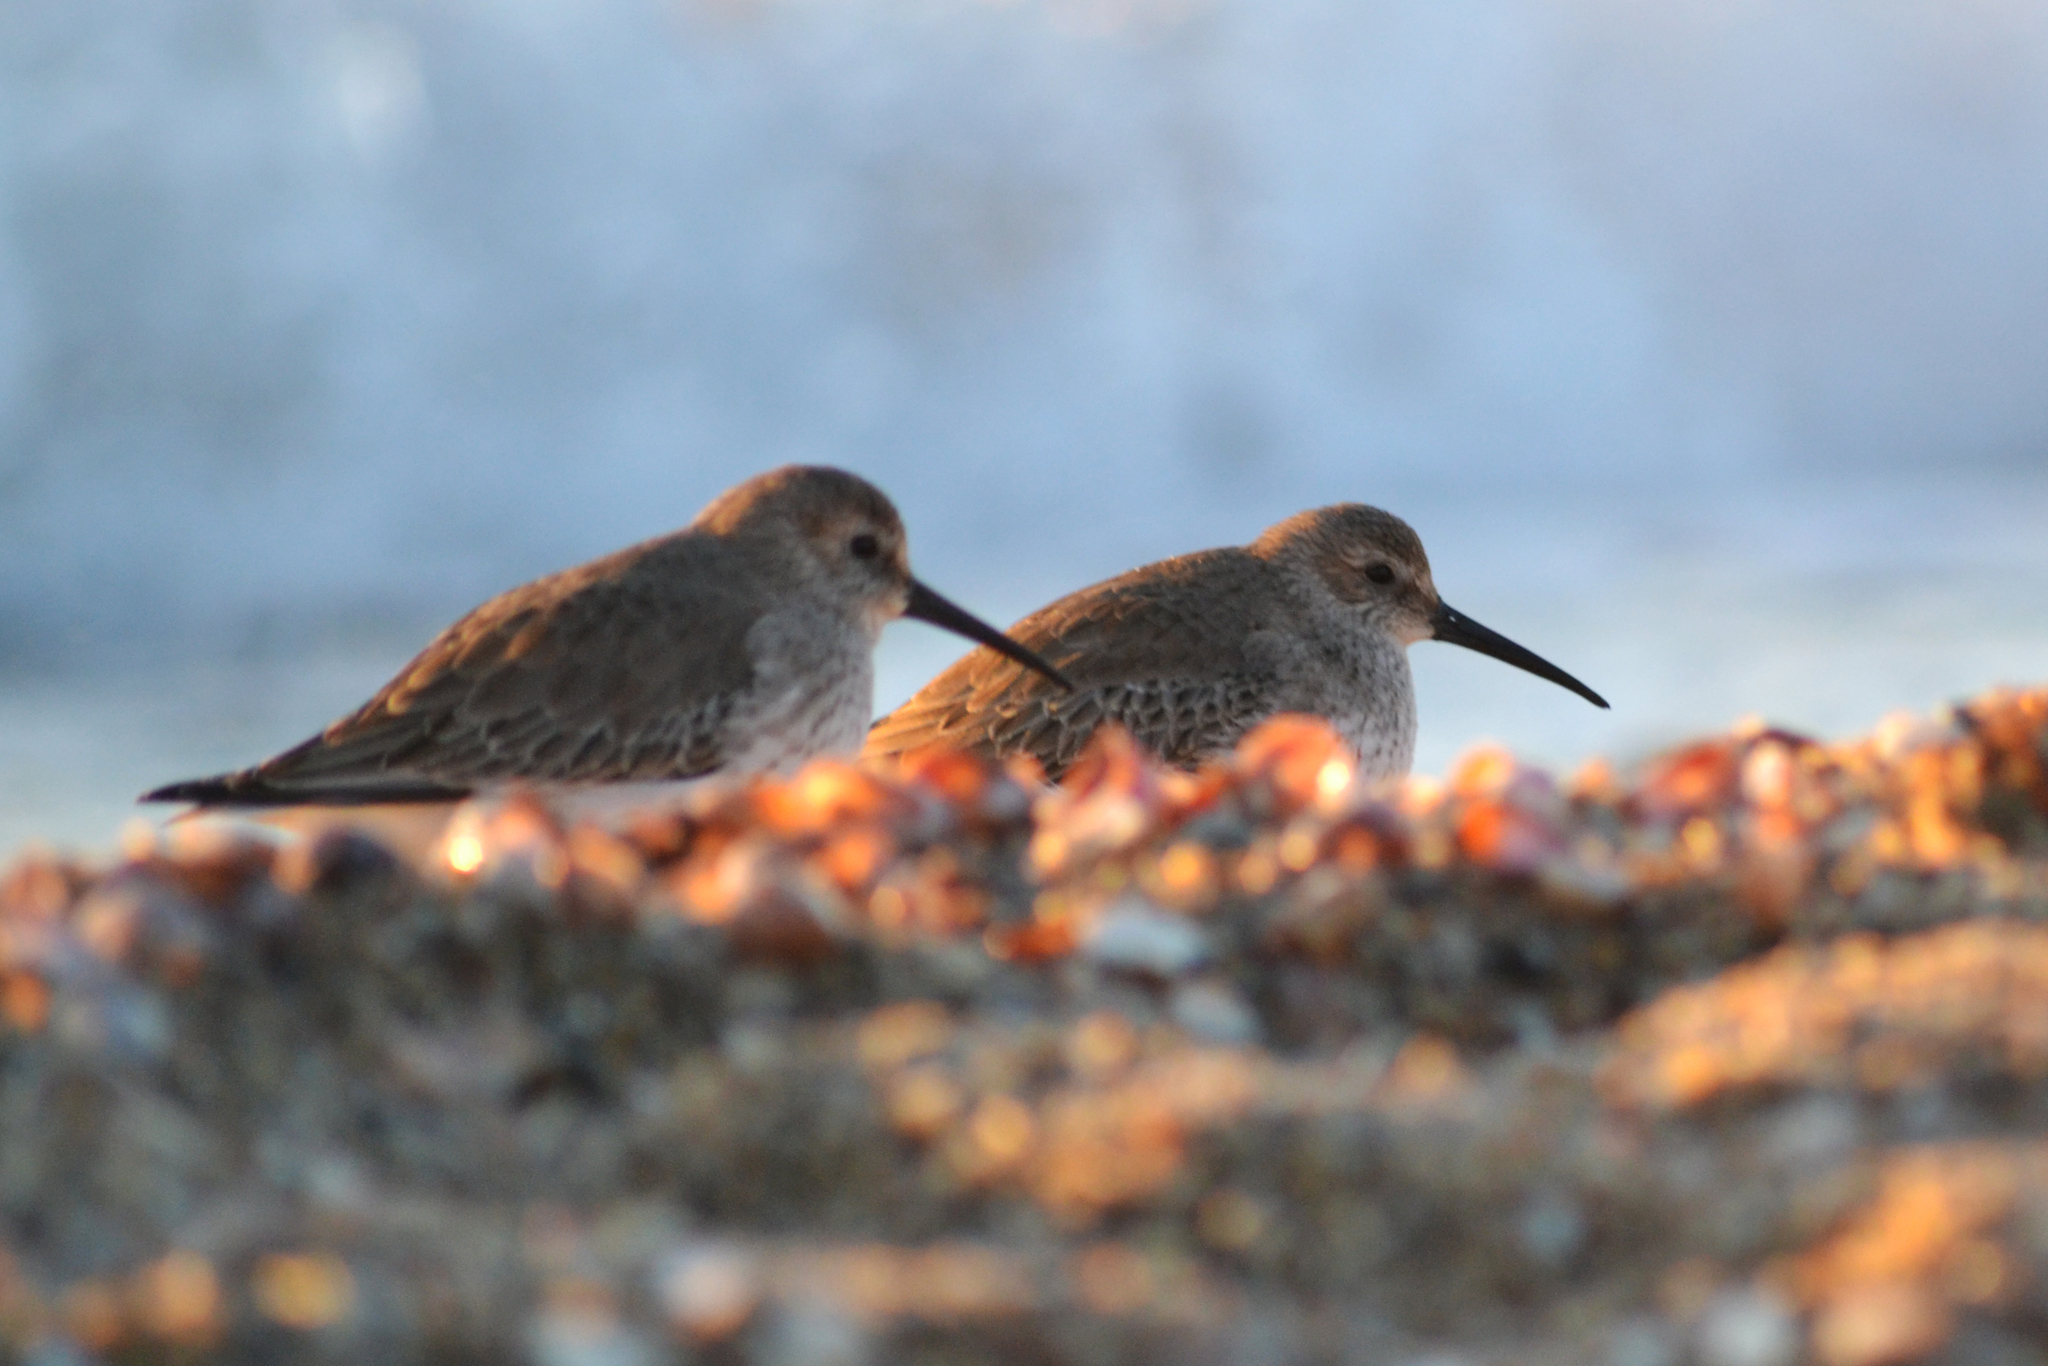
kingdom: Animalia
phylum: Chordata
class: Aves
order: Charadriiformes
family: Scolopacidae
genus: Calidris
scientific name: Calidris alpina
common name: Dunlin
